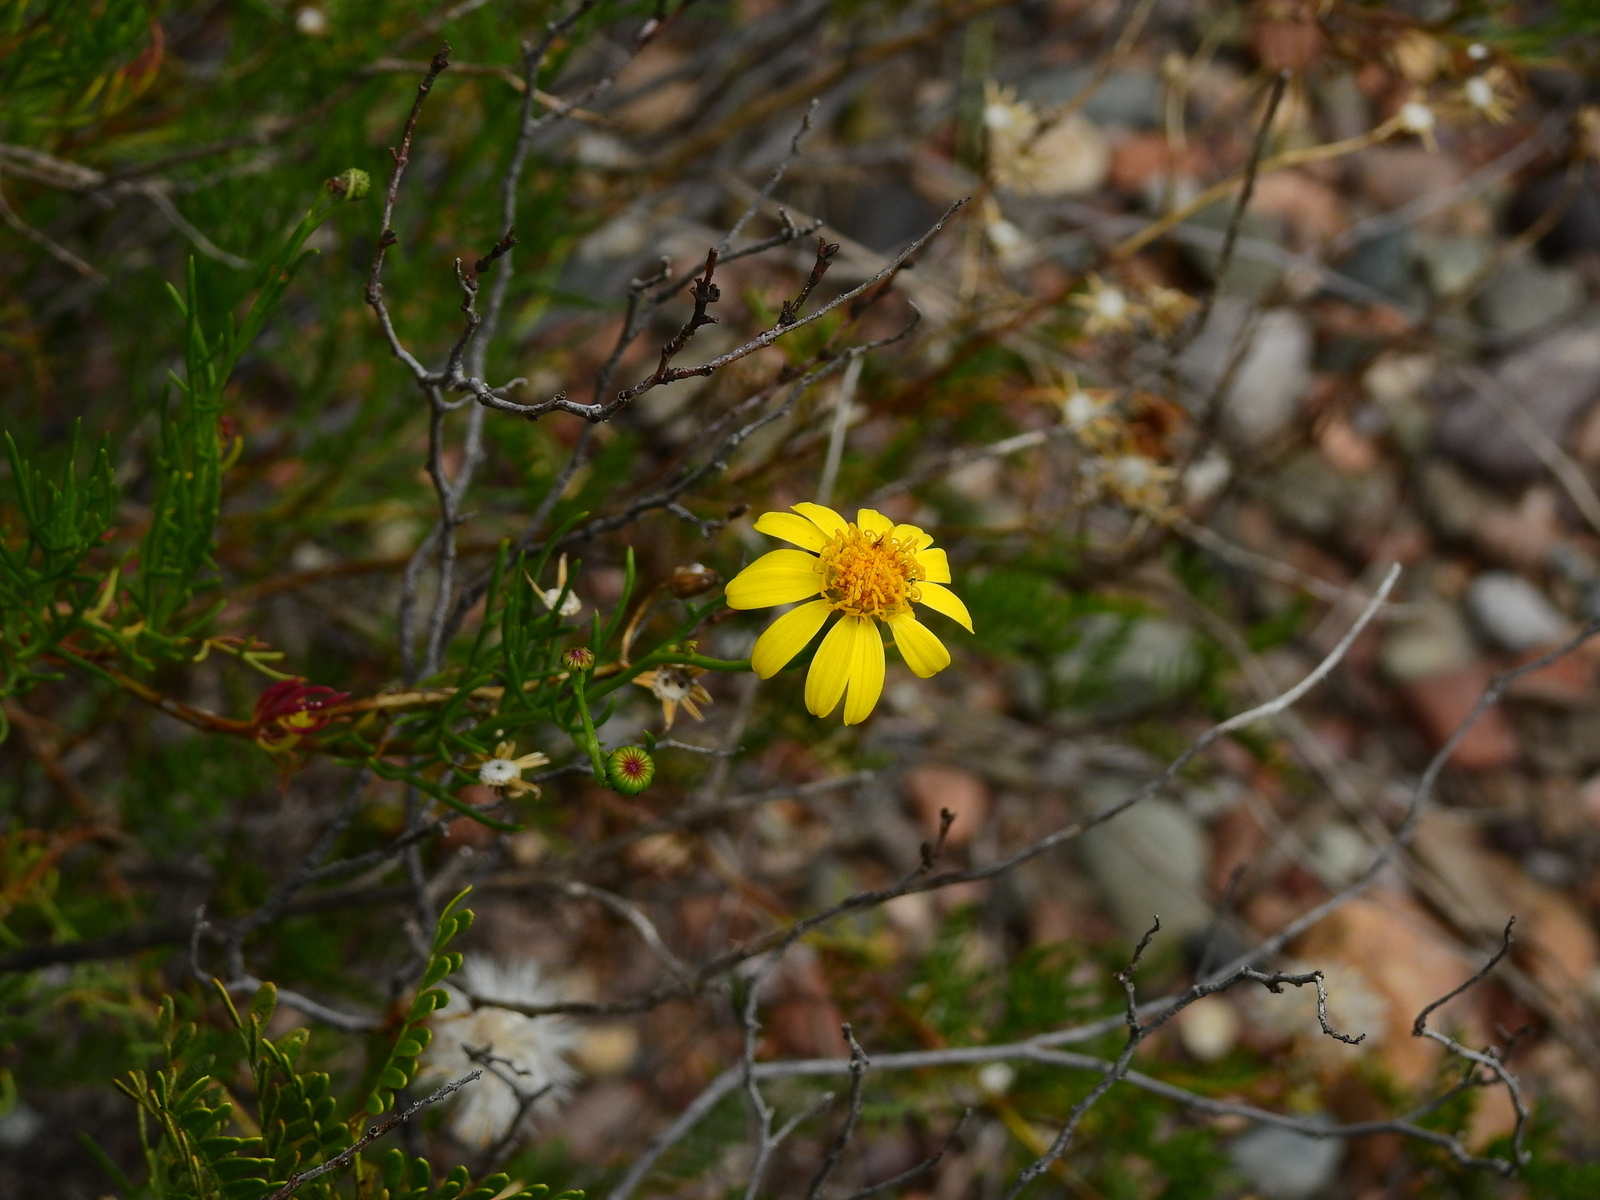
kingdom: Plantae
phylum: Tracheophyta
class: Magnoliopsida
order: Asterales
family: Asteraceae
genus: Senecio
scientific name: Senecio subulatus
